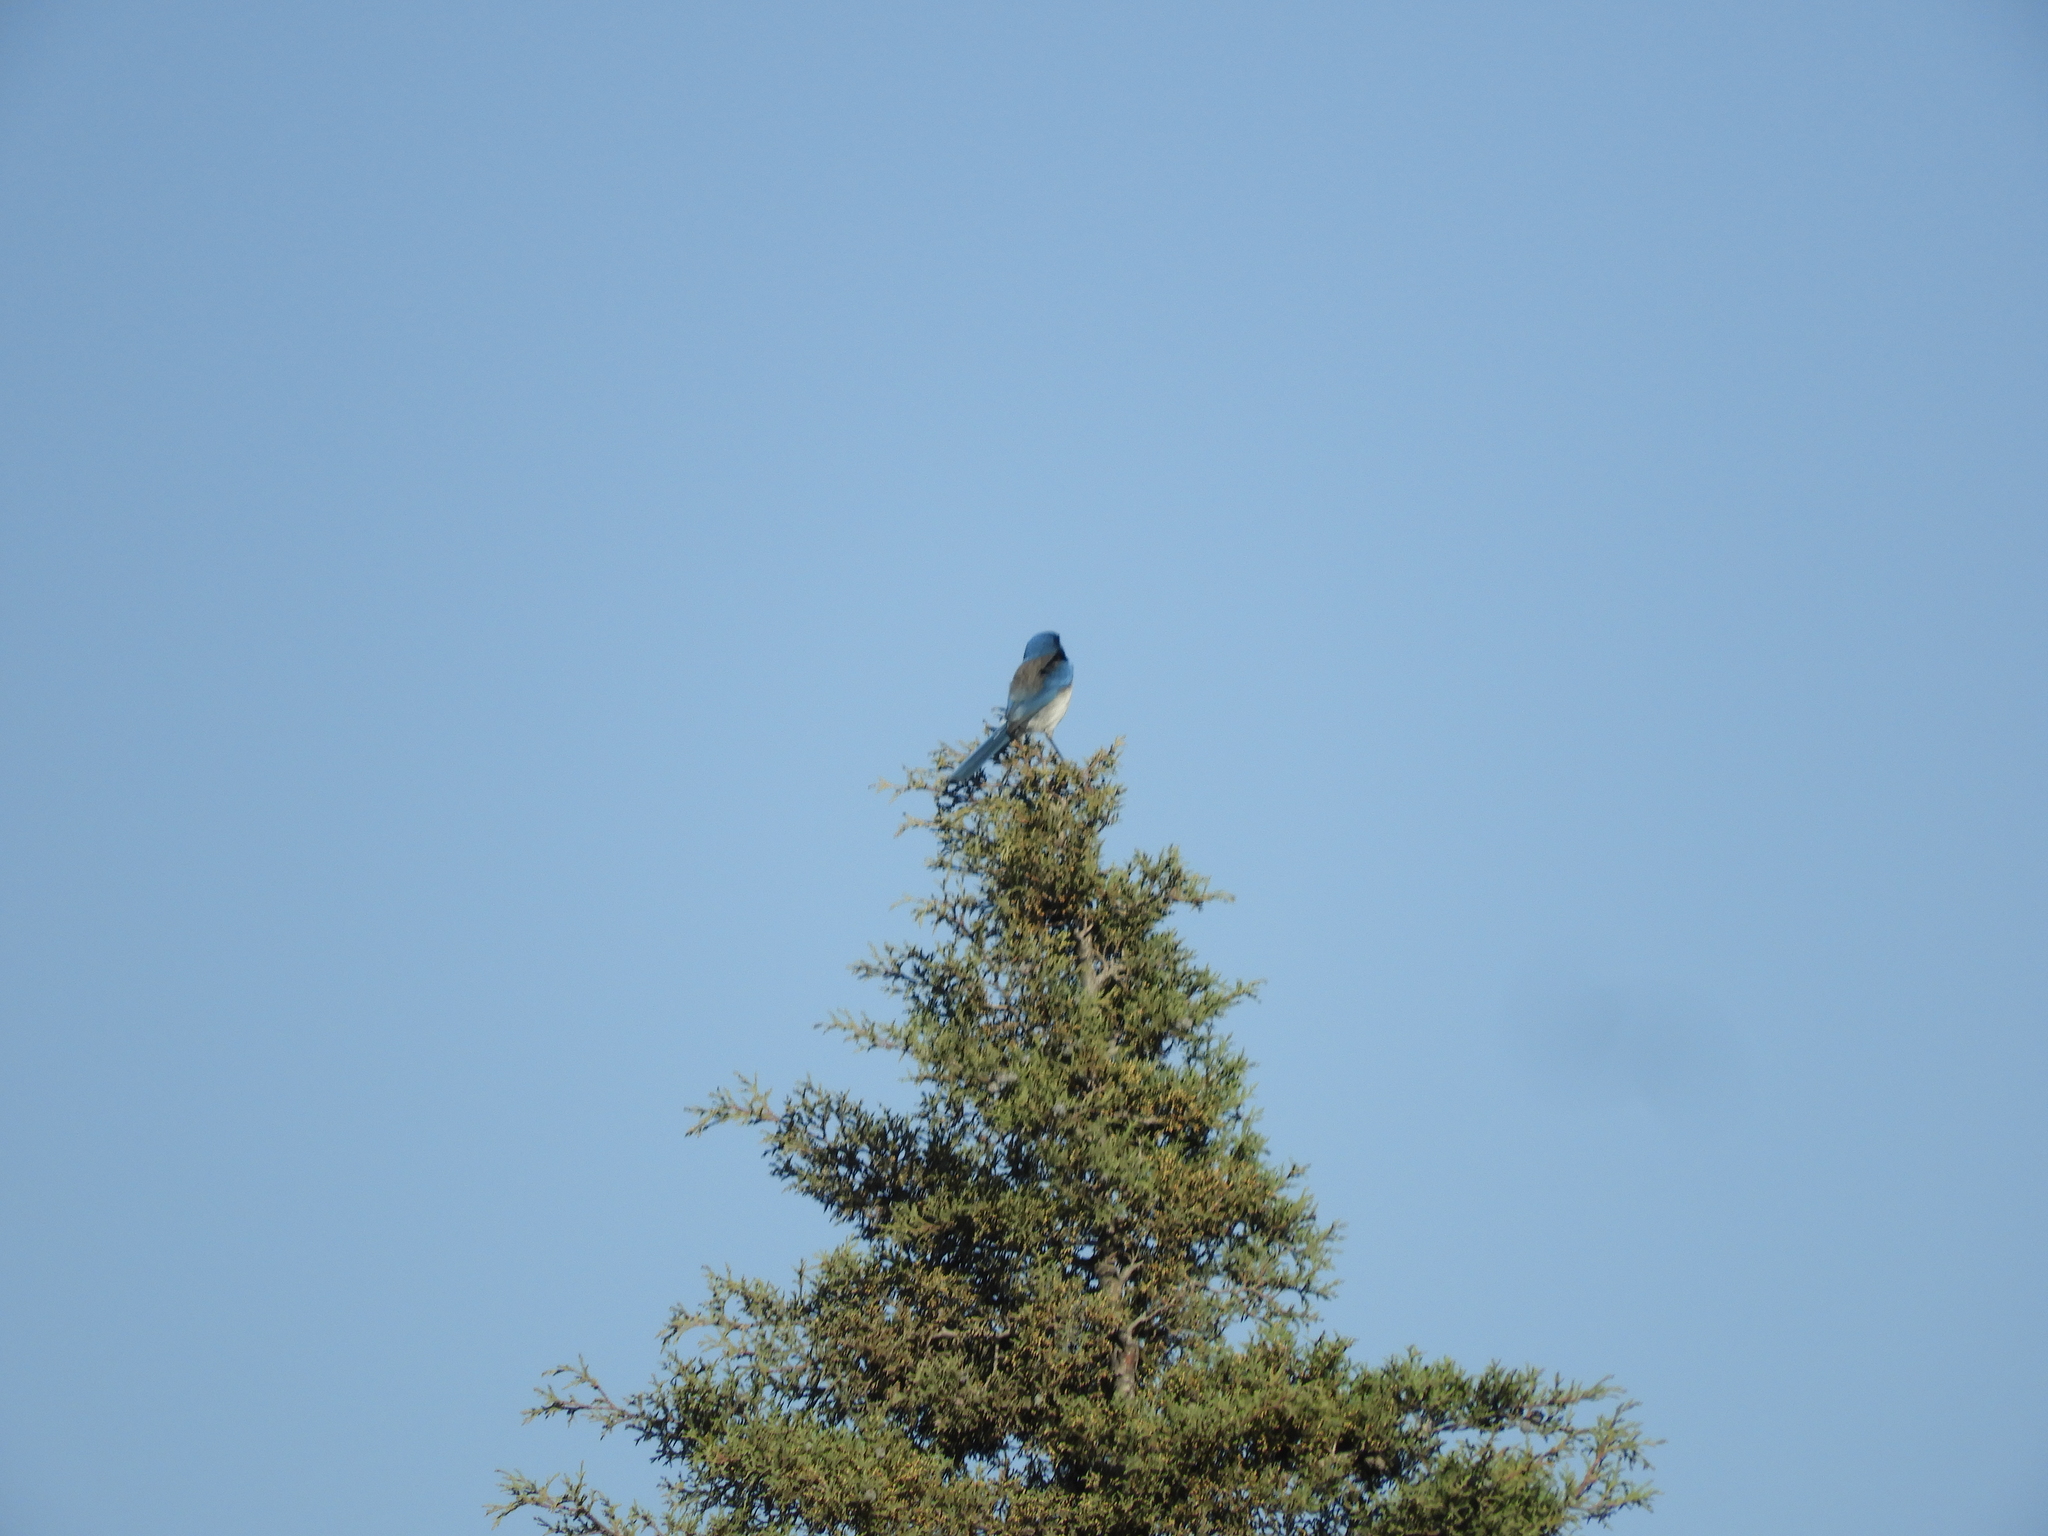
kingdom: Animalia
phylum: Chordata
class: Aves
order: Passeriformes
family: Corvidae
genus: Aphelocoma
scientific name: Aphelocoma woodhouseii
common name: Woodhouse's scrub-jay
